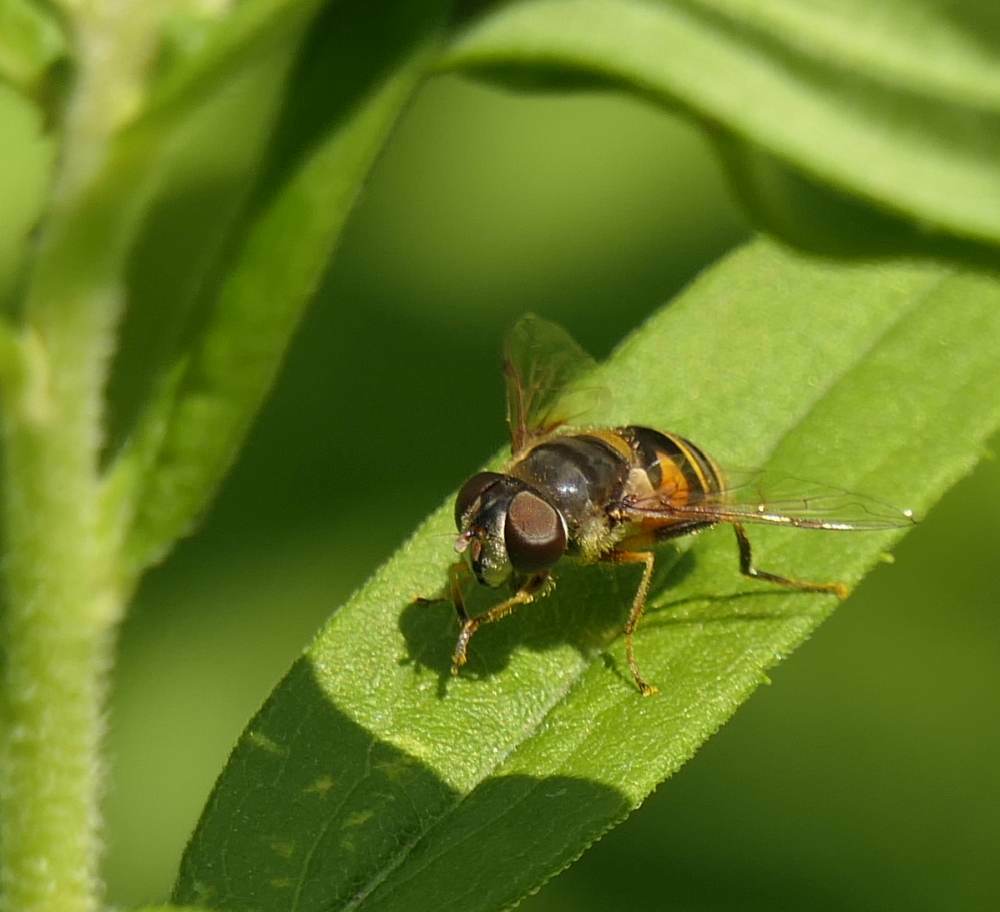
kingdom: Animalia
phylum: Arthropoda
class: Insecta
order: Diptera
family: Syrphidae
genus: Eristalis
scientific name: Eristalis transversa
